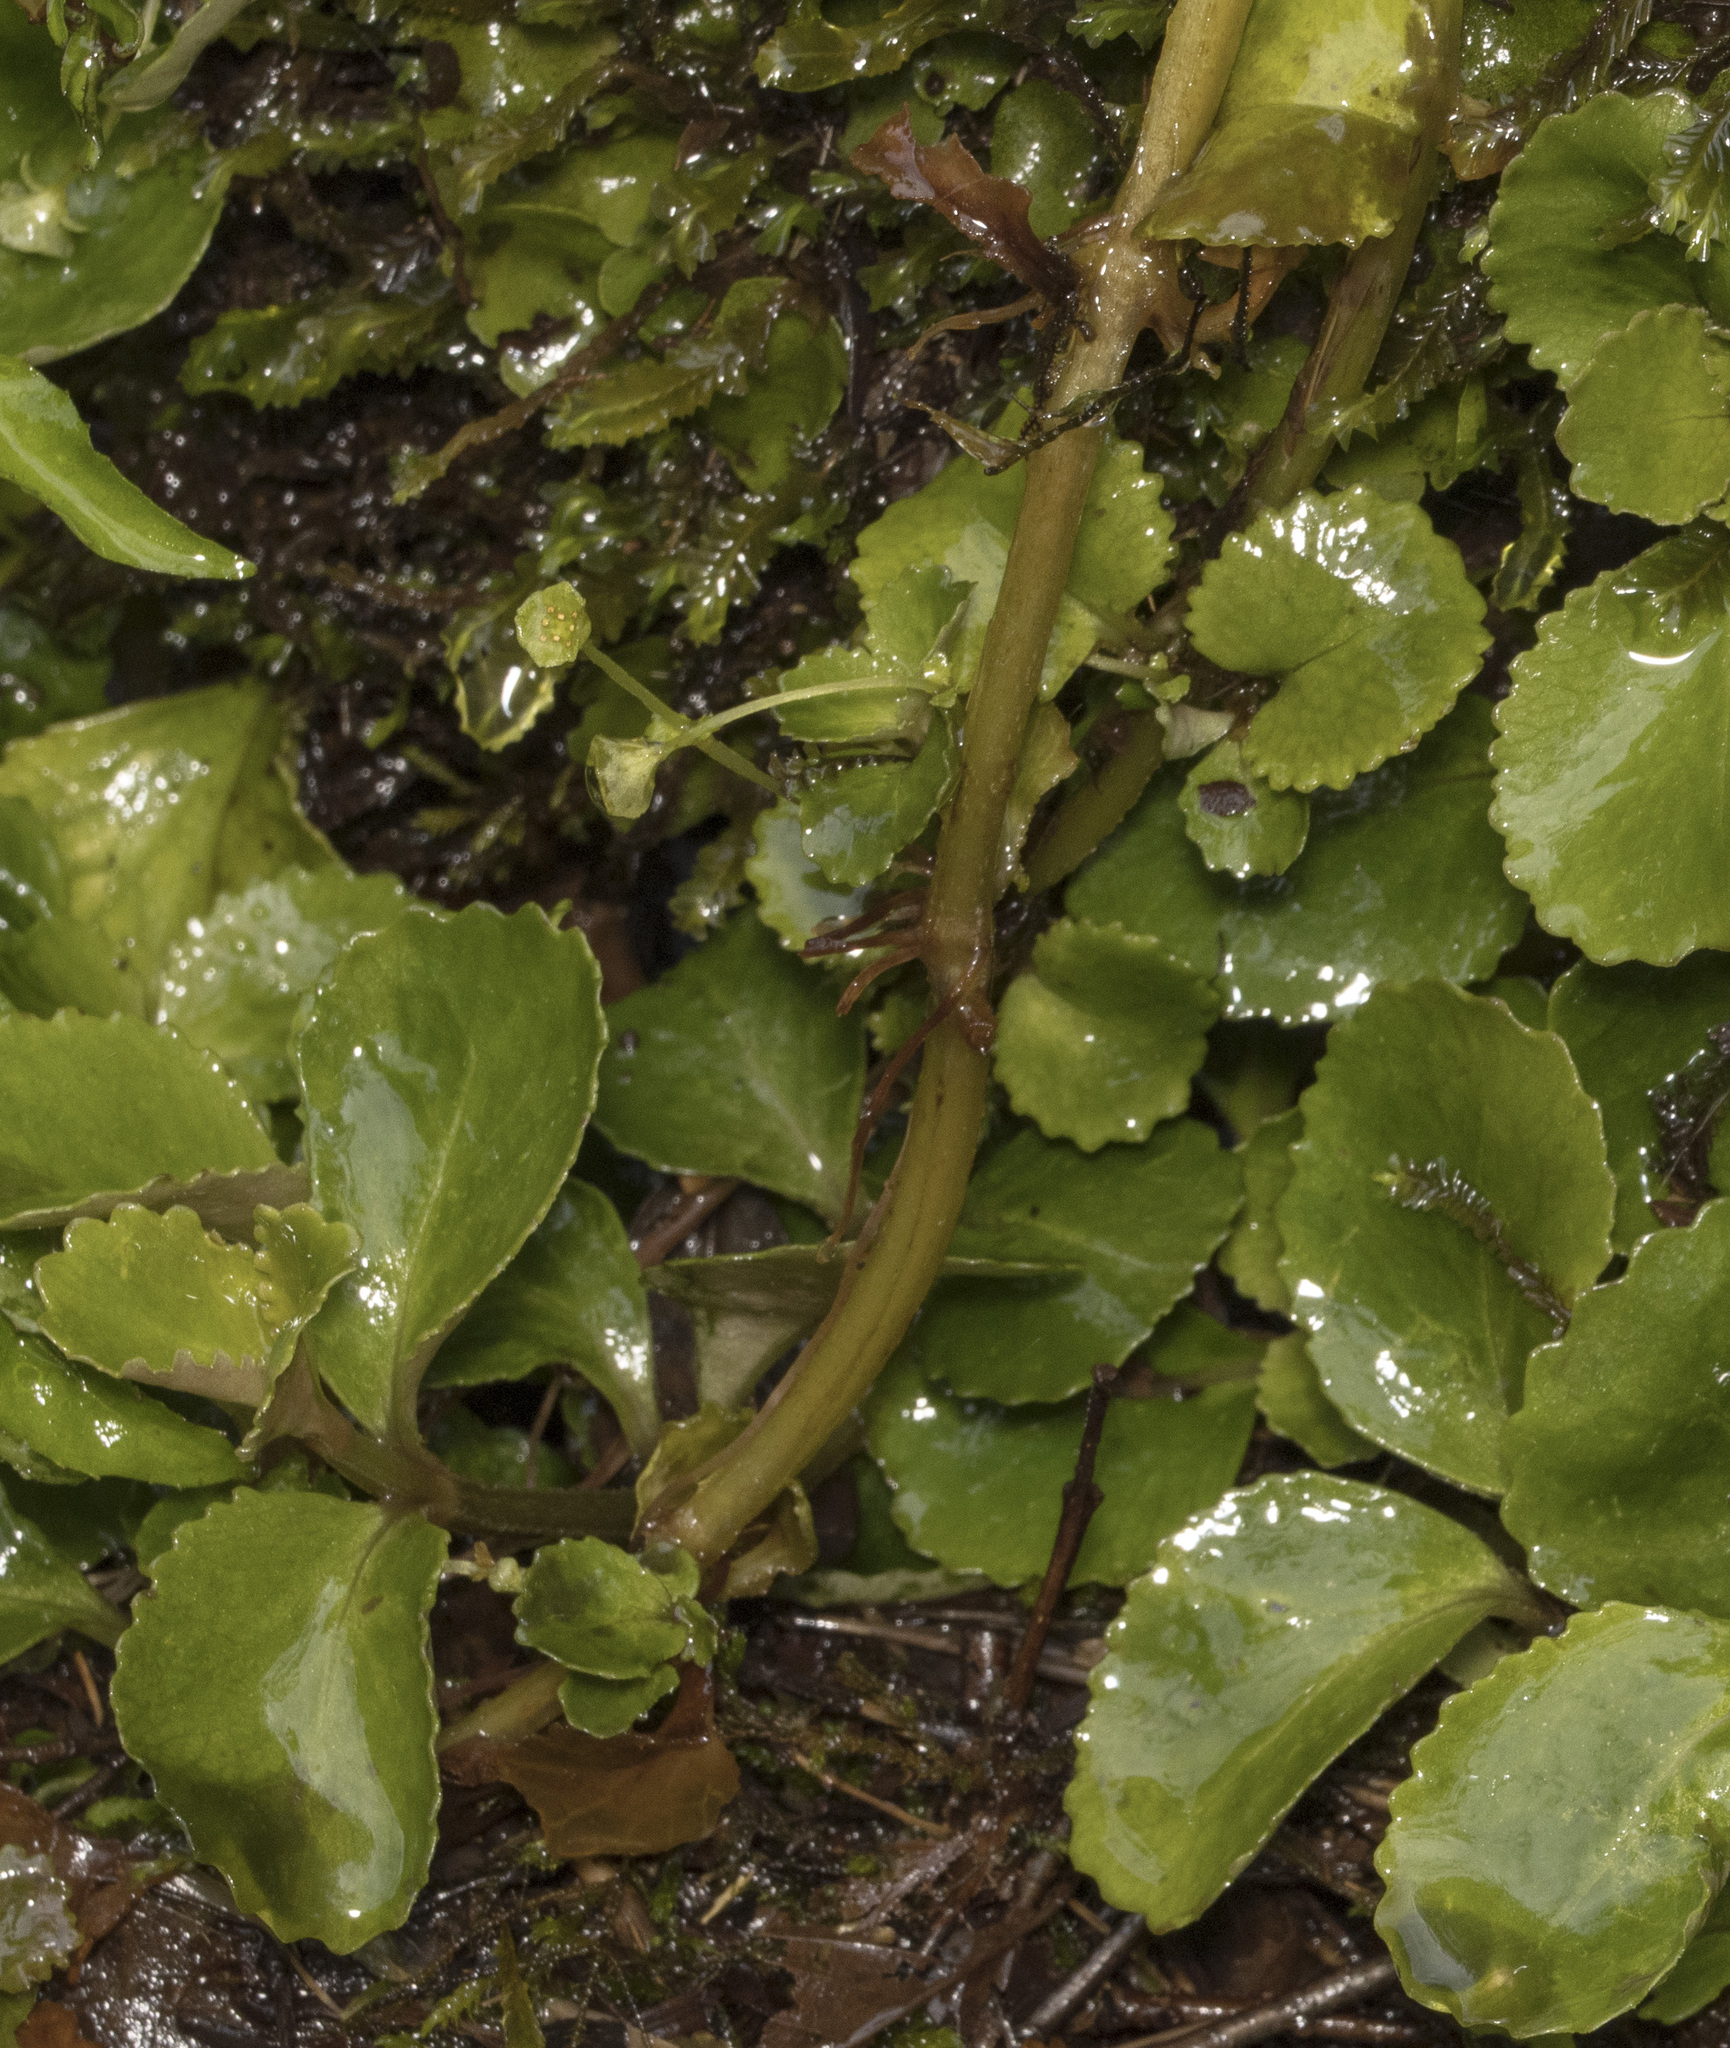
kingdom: Plantae
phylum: Tracheophyta
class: Magnoliopsida
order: Saxifragales
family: Saxifragaceae
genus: Chrysosplenium
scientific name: Chrysosplenium valdivicum
